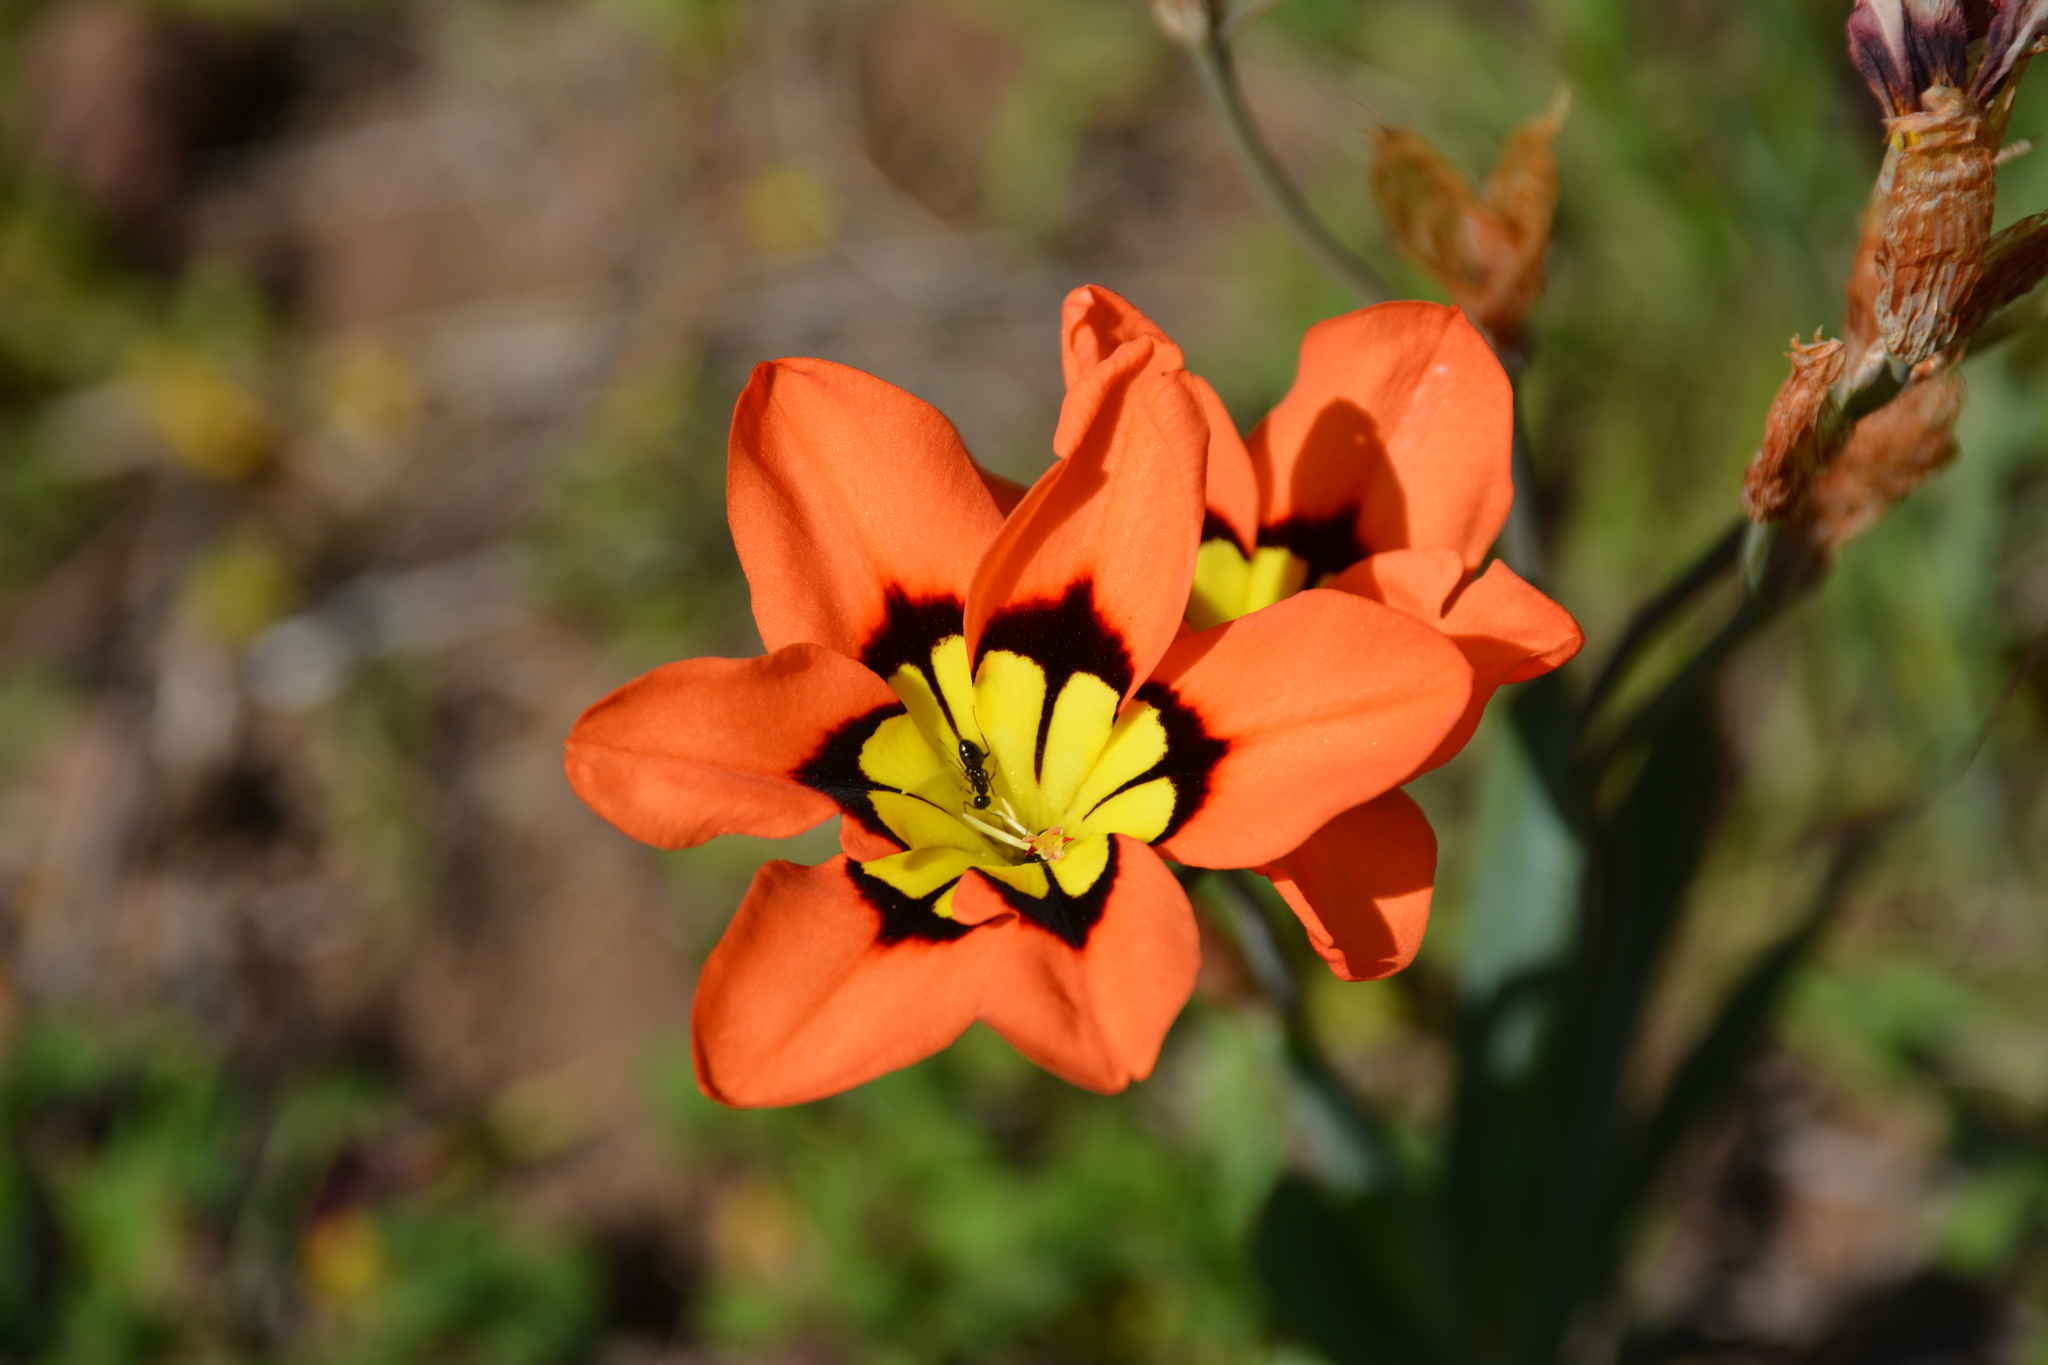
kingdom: Plantae
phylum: Tracheophyta
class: Liliopsida
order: Asparagales
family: Iridaceae
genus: Sparaxis
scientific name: Sparaxis tricolor
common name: Wandflower
